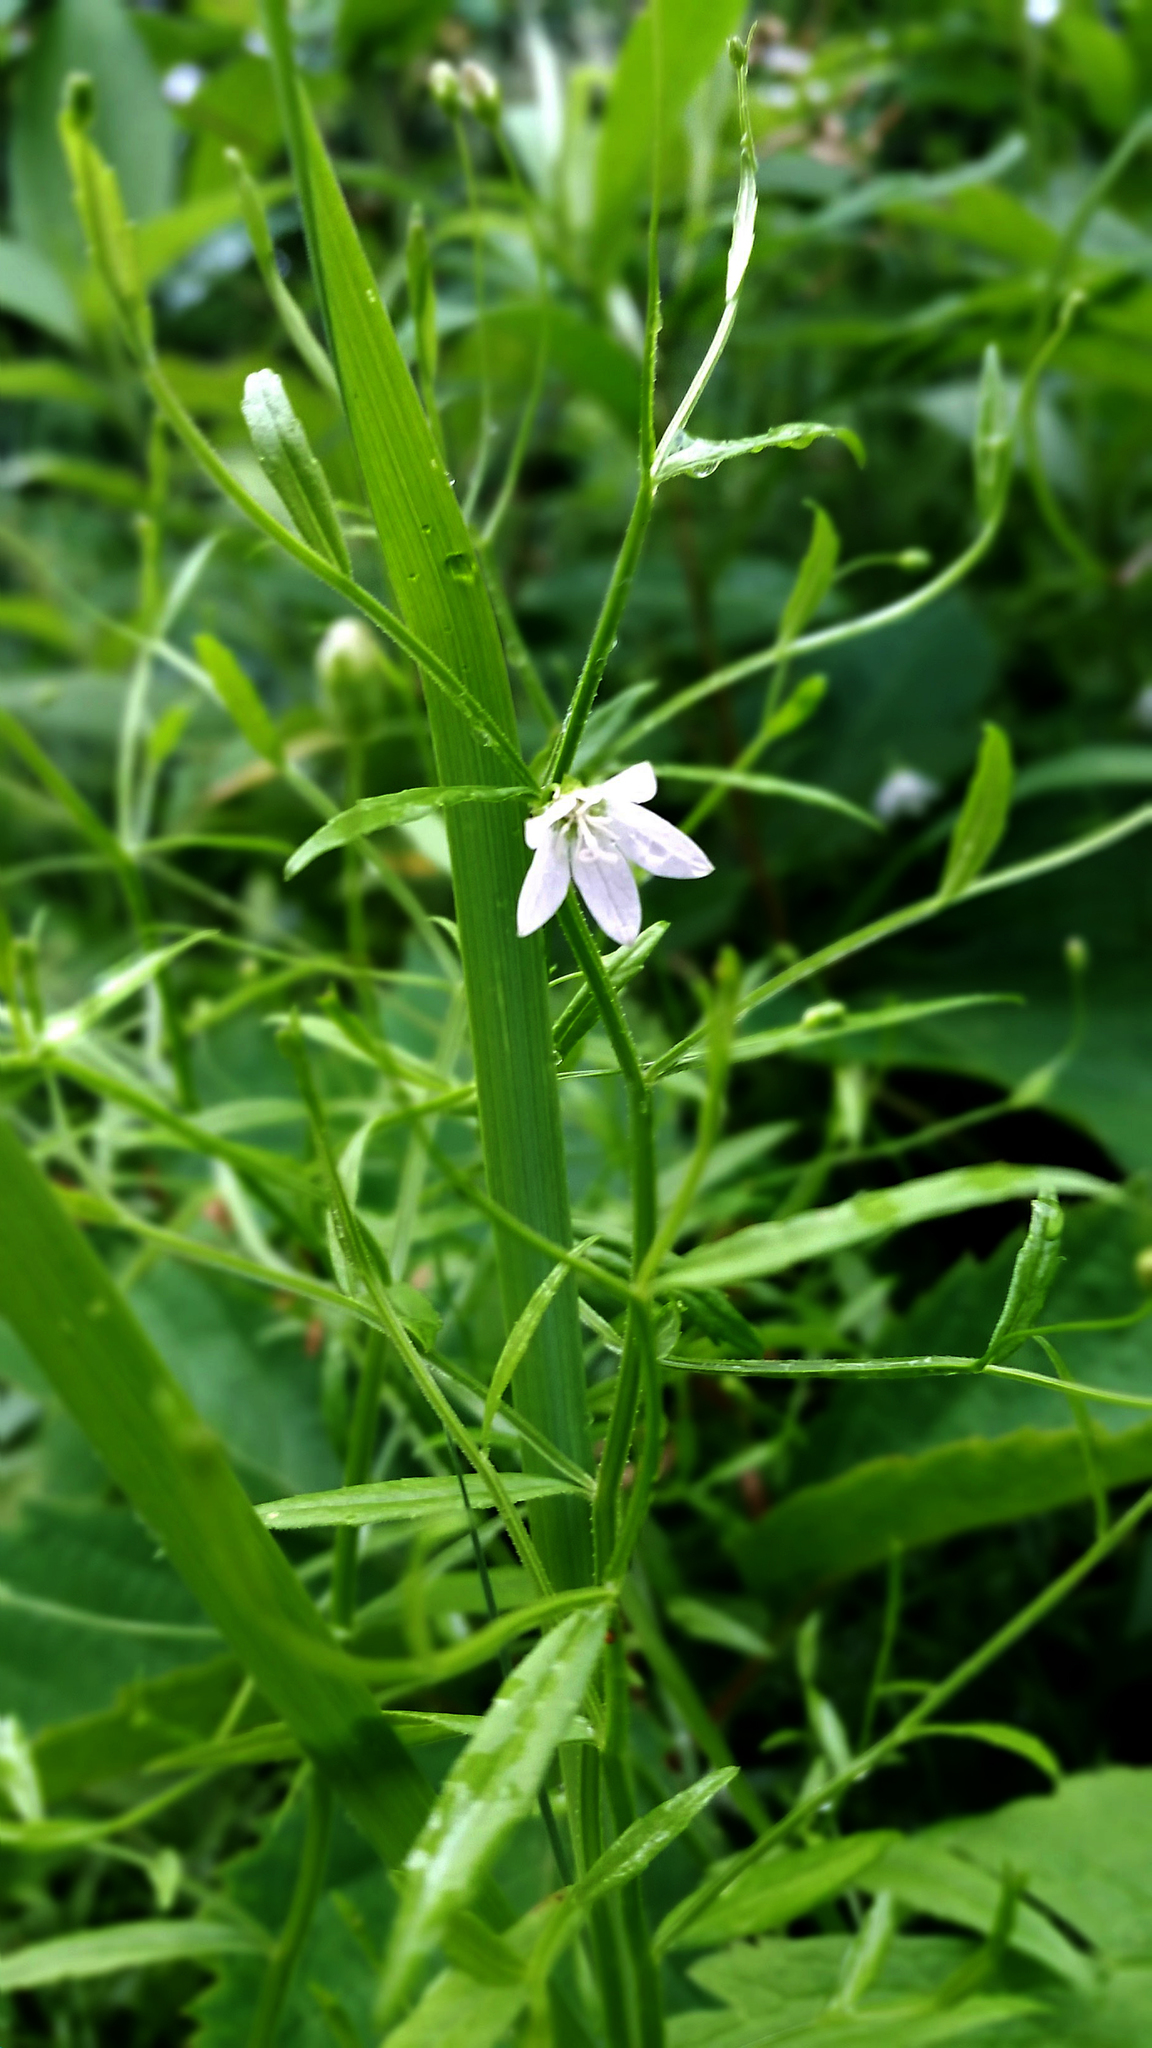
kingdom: Plantae
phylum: Tracheophyta
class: Magnoliopsida
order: Asterales
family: Campanulaceae
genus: Palustricodon
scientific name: Palustricodon aparinoides
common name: Bedstraw bellflower
